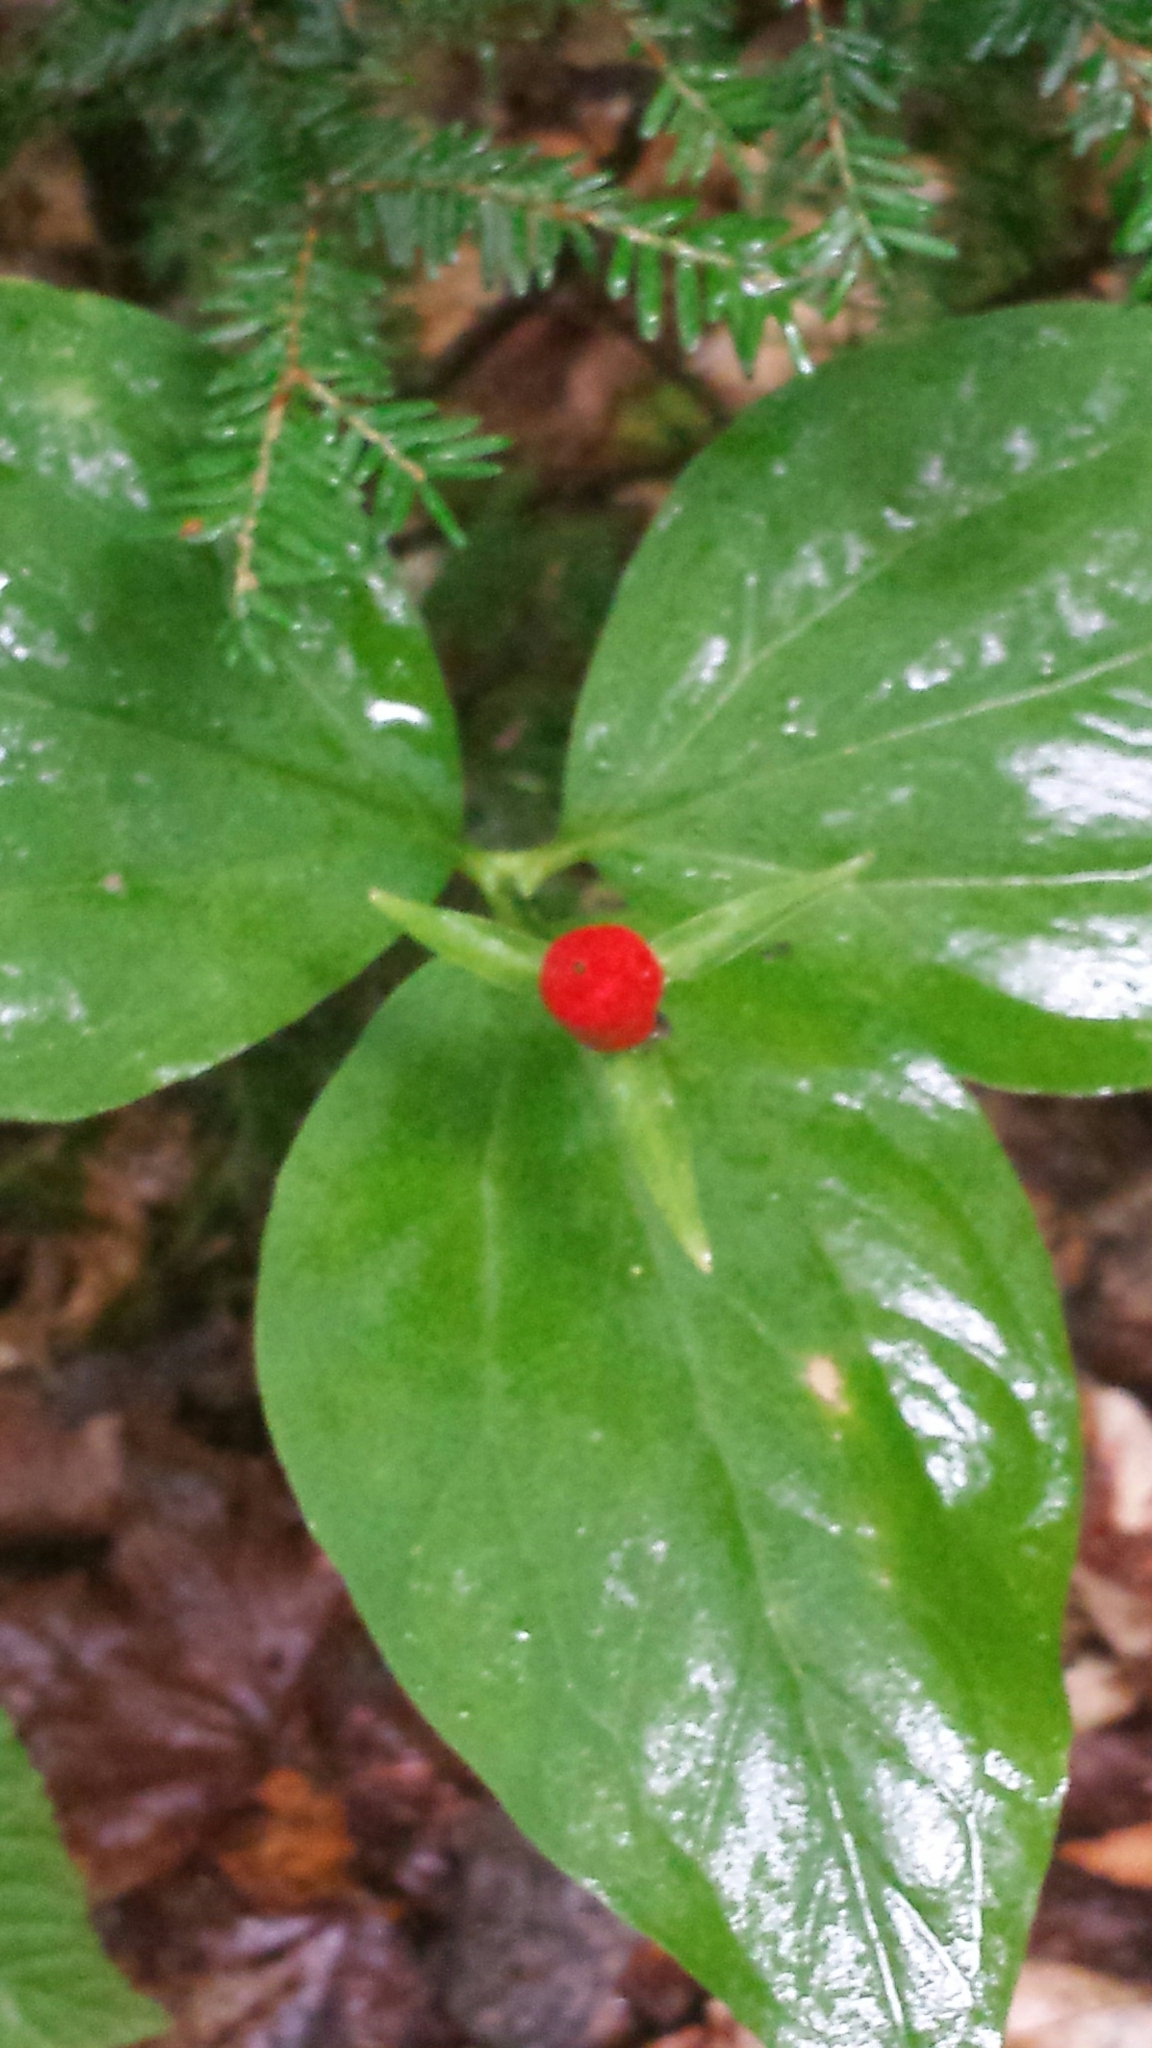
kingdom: Plantae
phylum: Tracheophyta
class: Liliopsida
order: Liliales
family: Melanthiaceae
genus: Trillium
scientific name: Trillium undulatum
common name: Paint trillium
